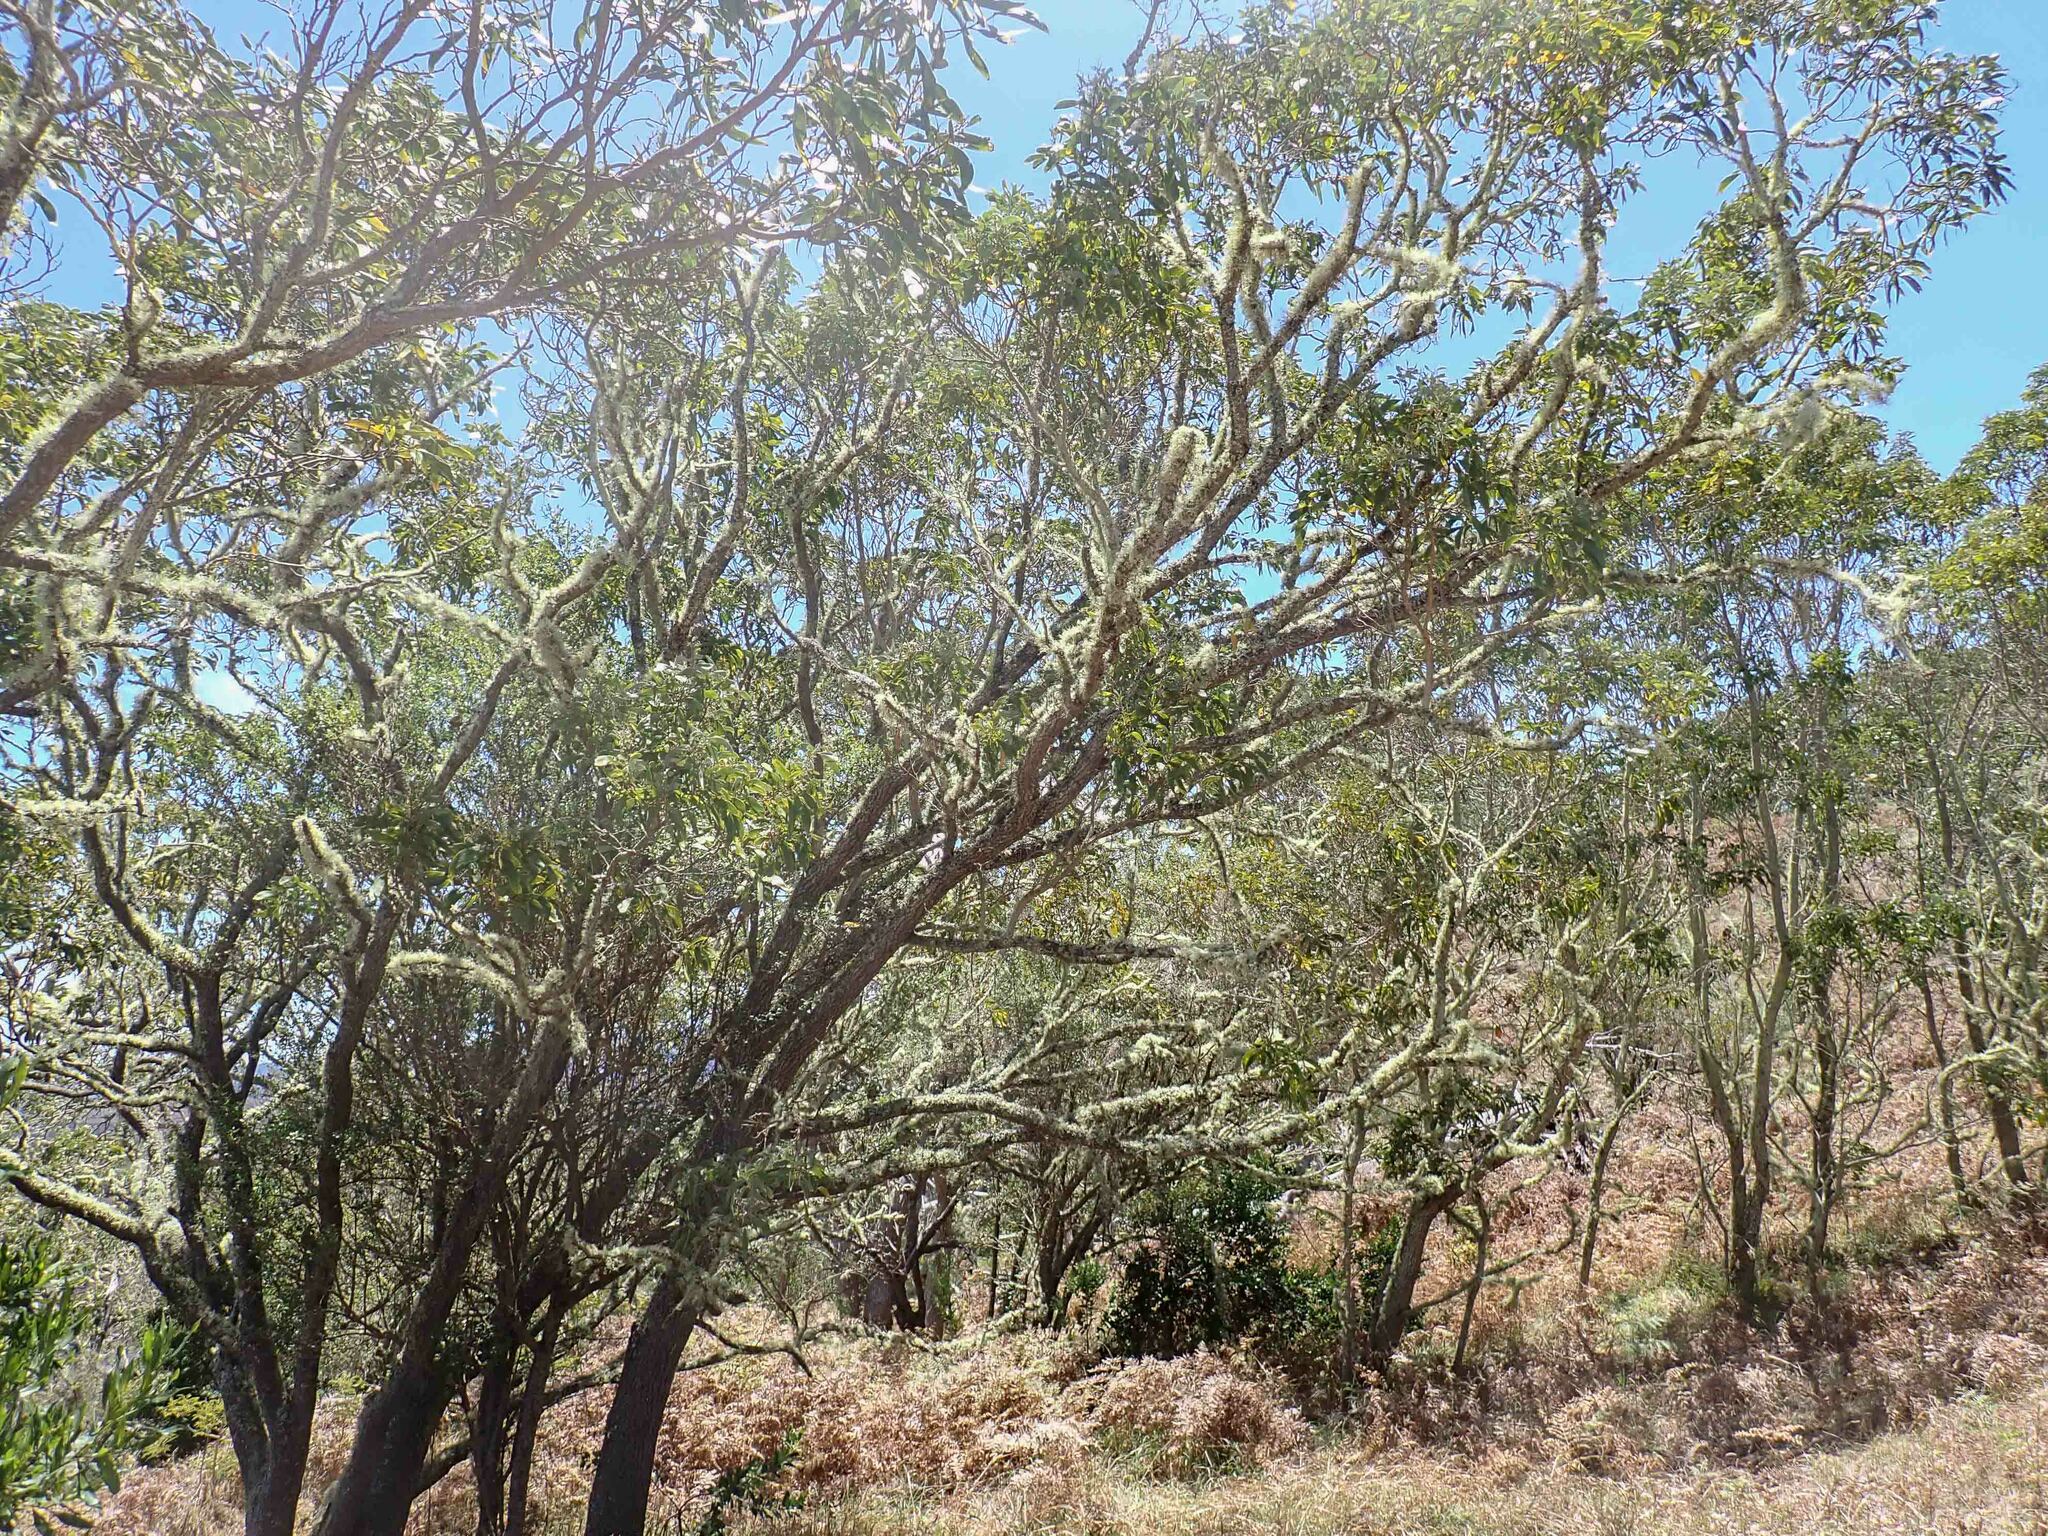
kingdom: Plantae
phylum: Tracheophyta
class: Magnoliopsida
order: Fabales
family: Fabaceae
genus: Acacia
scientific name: Acacia koa
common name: Gray koa
